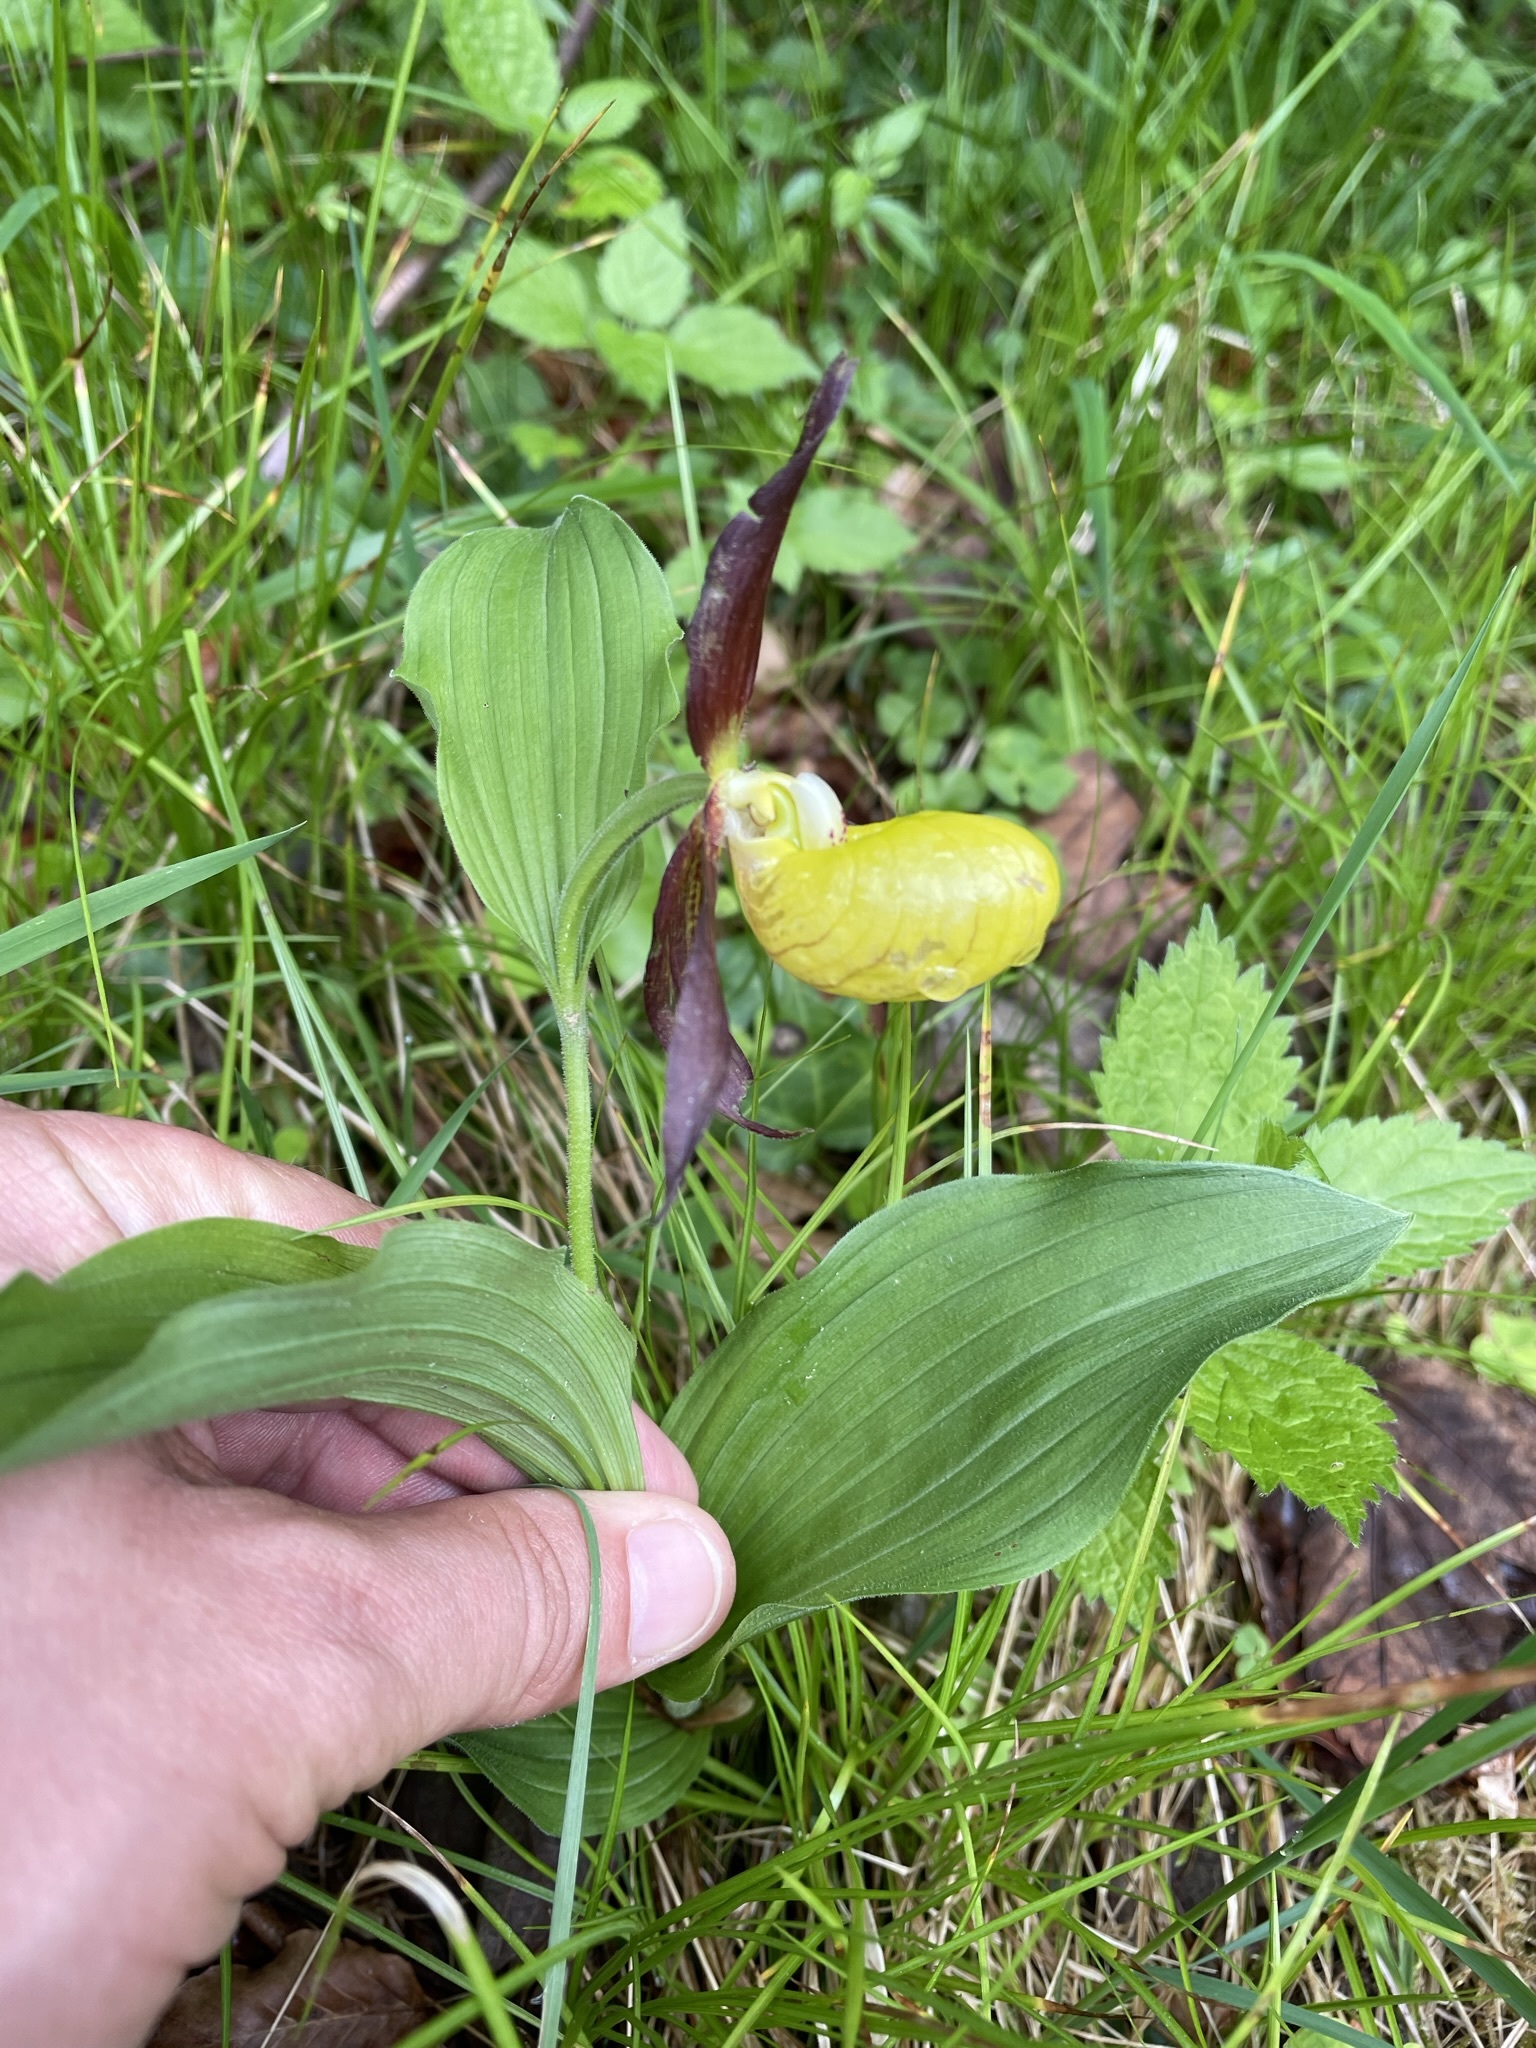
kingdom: Plantae
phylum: Tracheophyta
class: Liliopsida
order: Asparagales
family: Orchidaceae
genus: Cypripedium
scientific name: Cypripedium calceolus
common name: Lady's-slipper
